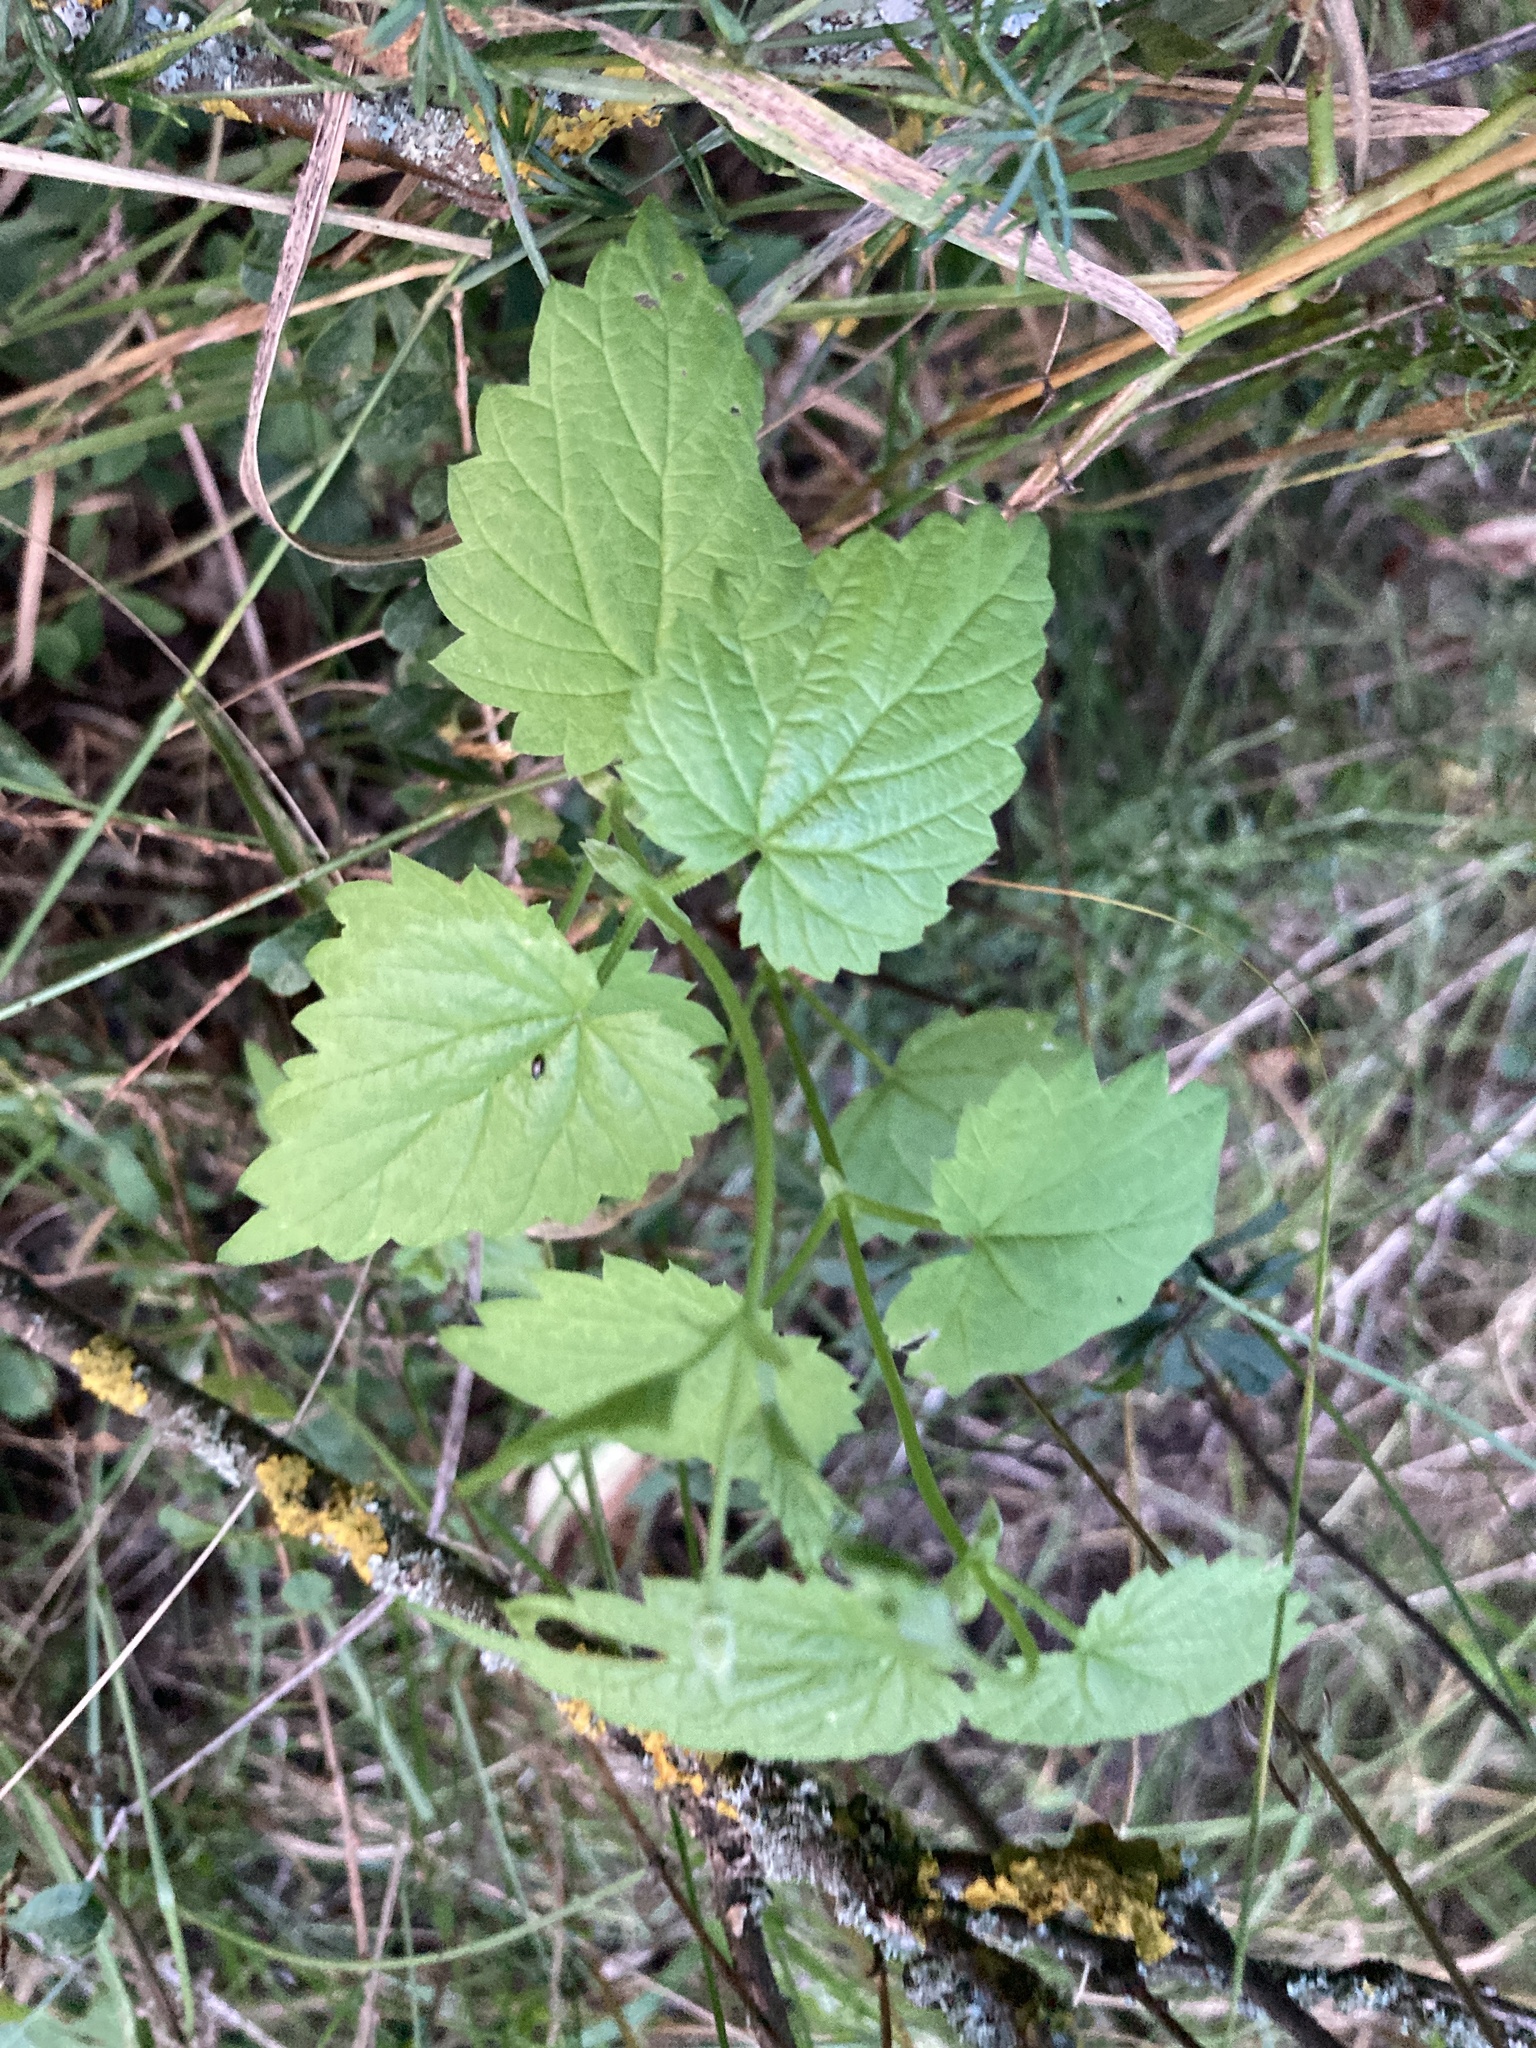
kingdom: Plantae
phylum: Tracheophyta
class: Magnoliopsida
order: Rosales
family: Cannabaceae
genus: Humulus
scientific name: Humulus lupulus
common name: Hop
